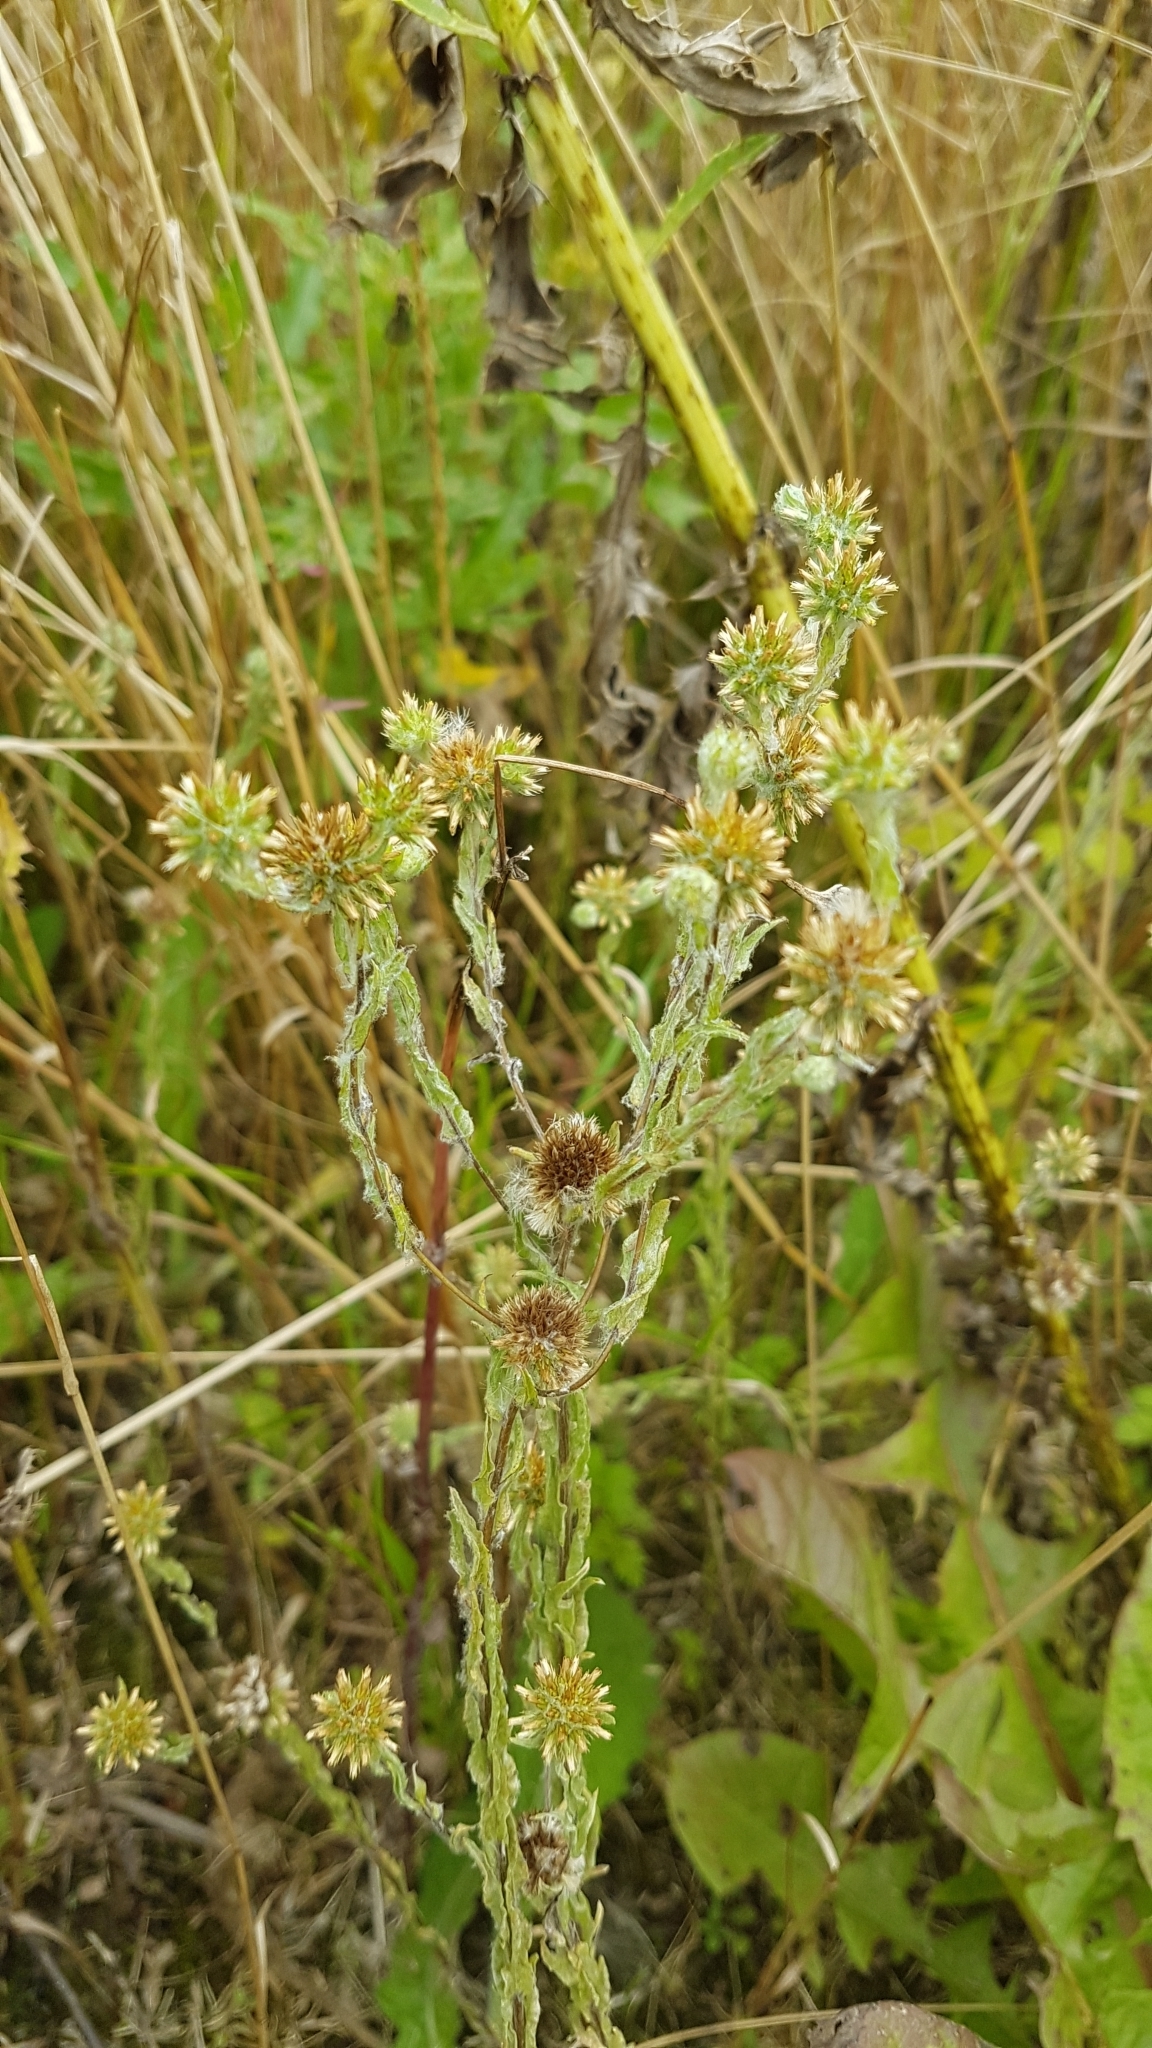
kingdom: Plantae
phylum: Tracheophyta
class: Magnoliopsida
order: Asterales
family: Asteraceae
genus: Filago
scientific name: Filago germanica
